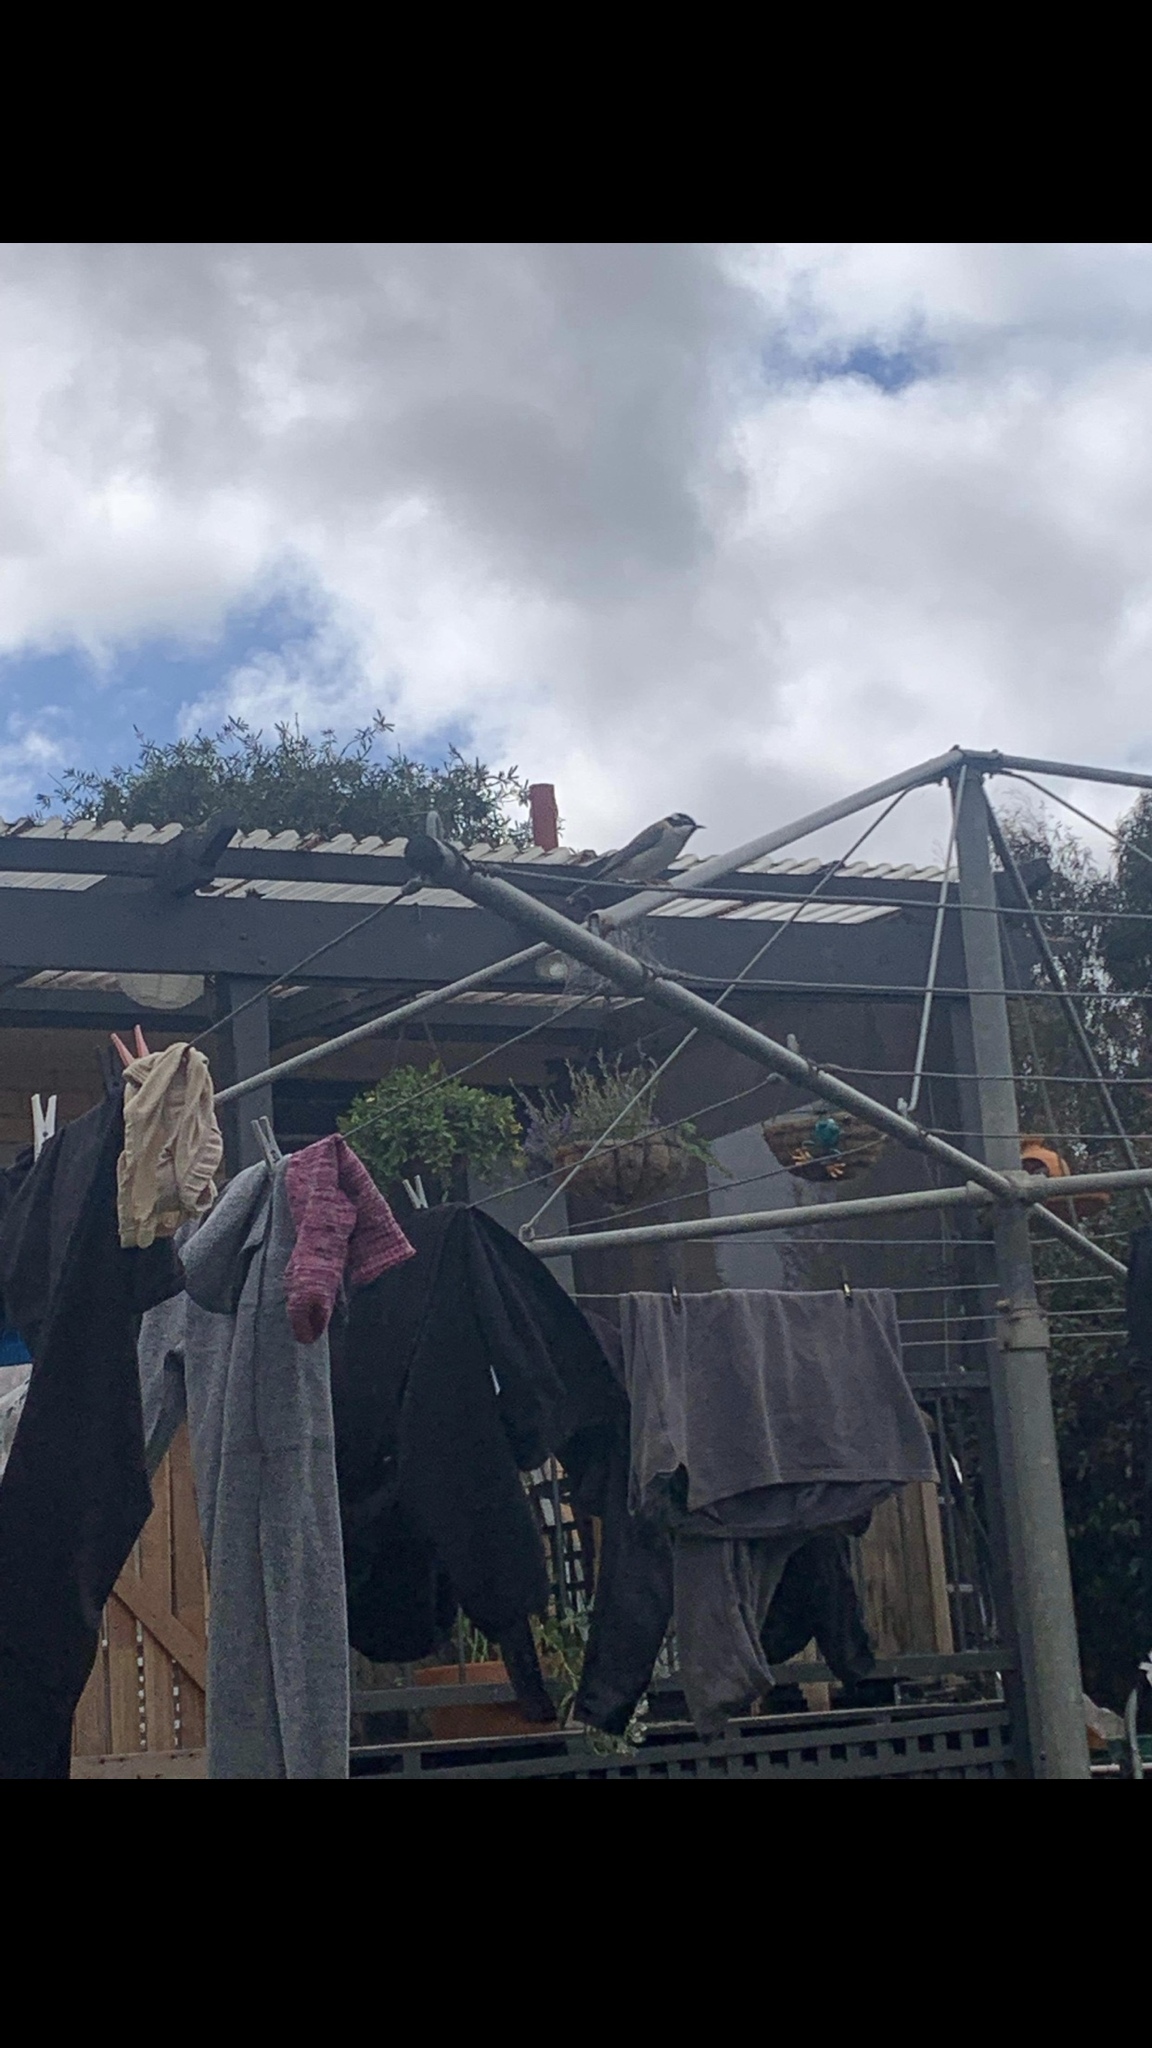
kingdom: Animalia
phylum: Chordata
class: Aves
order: Passeriformes
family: Meliphagidae
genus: Melithreptus
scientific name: Melithreptus gularis
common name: Black-chinned honeyeater
